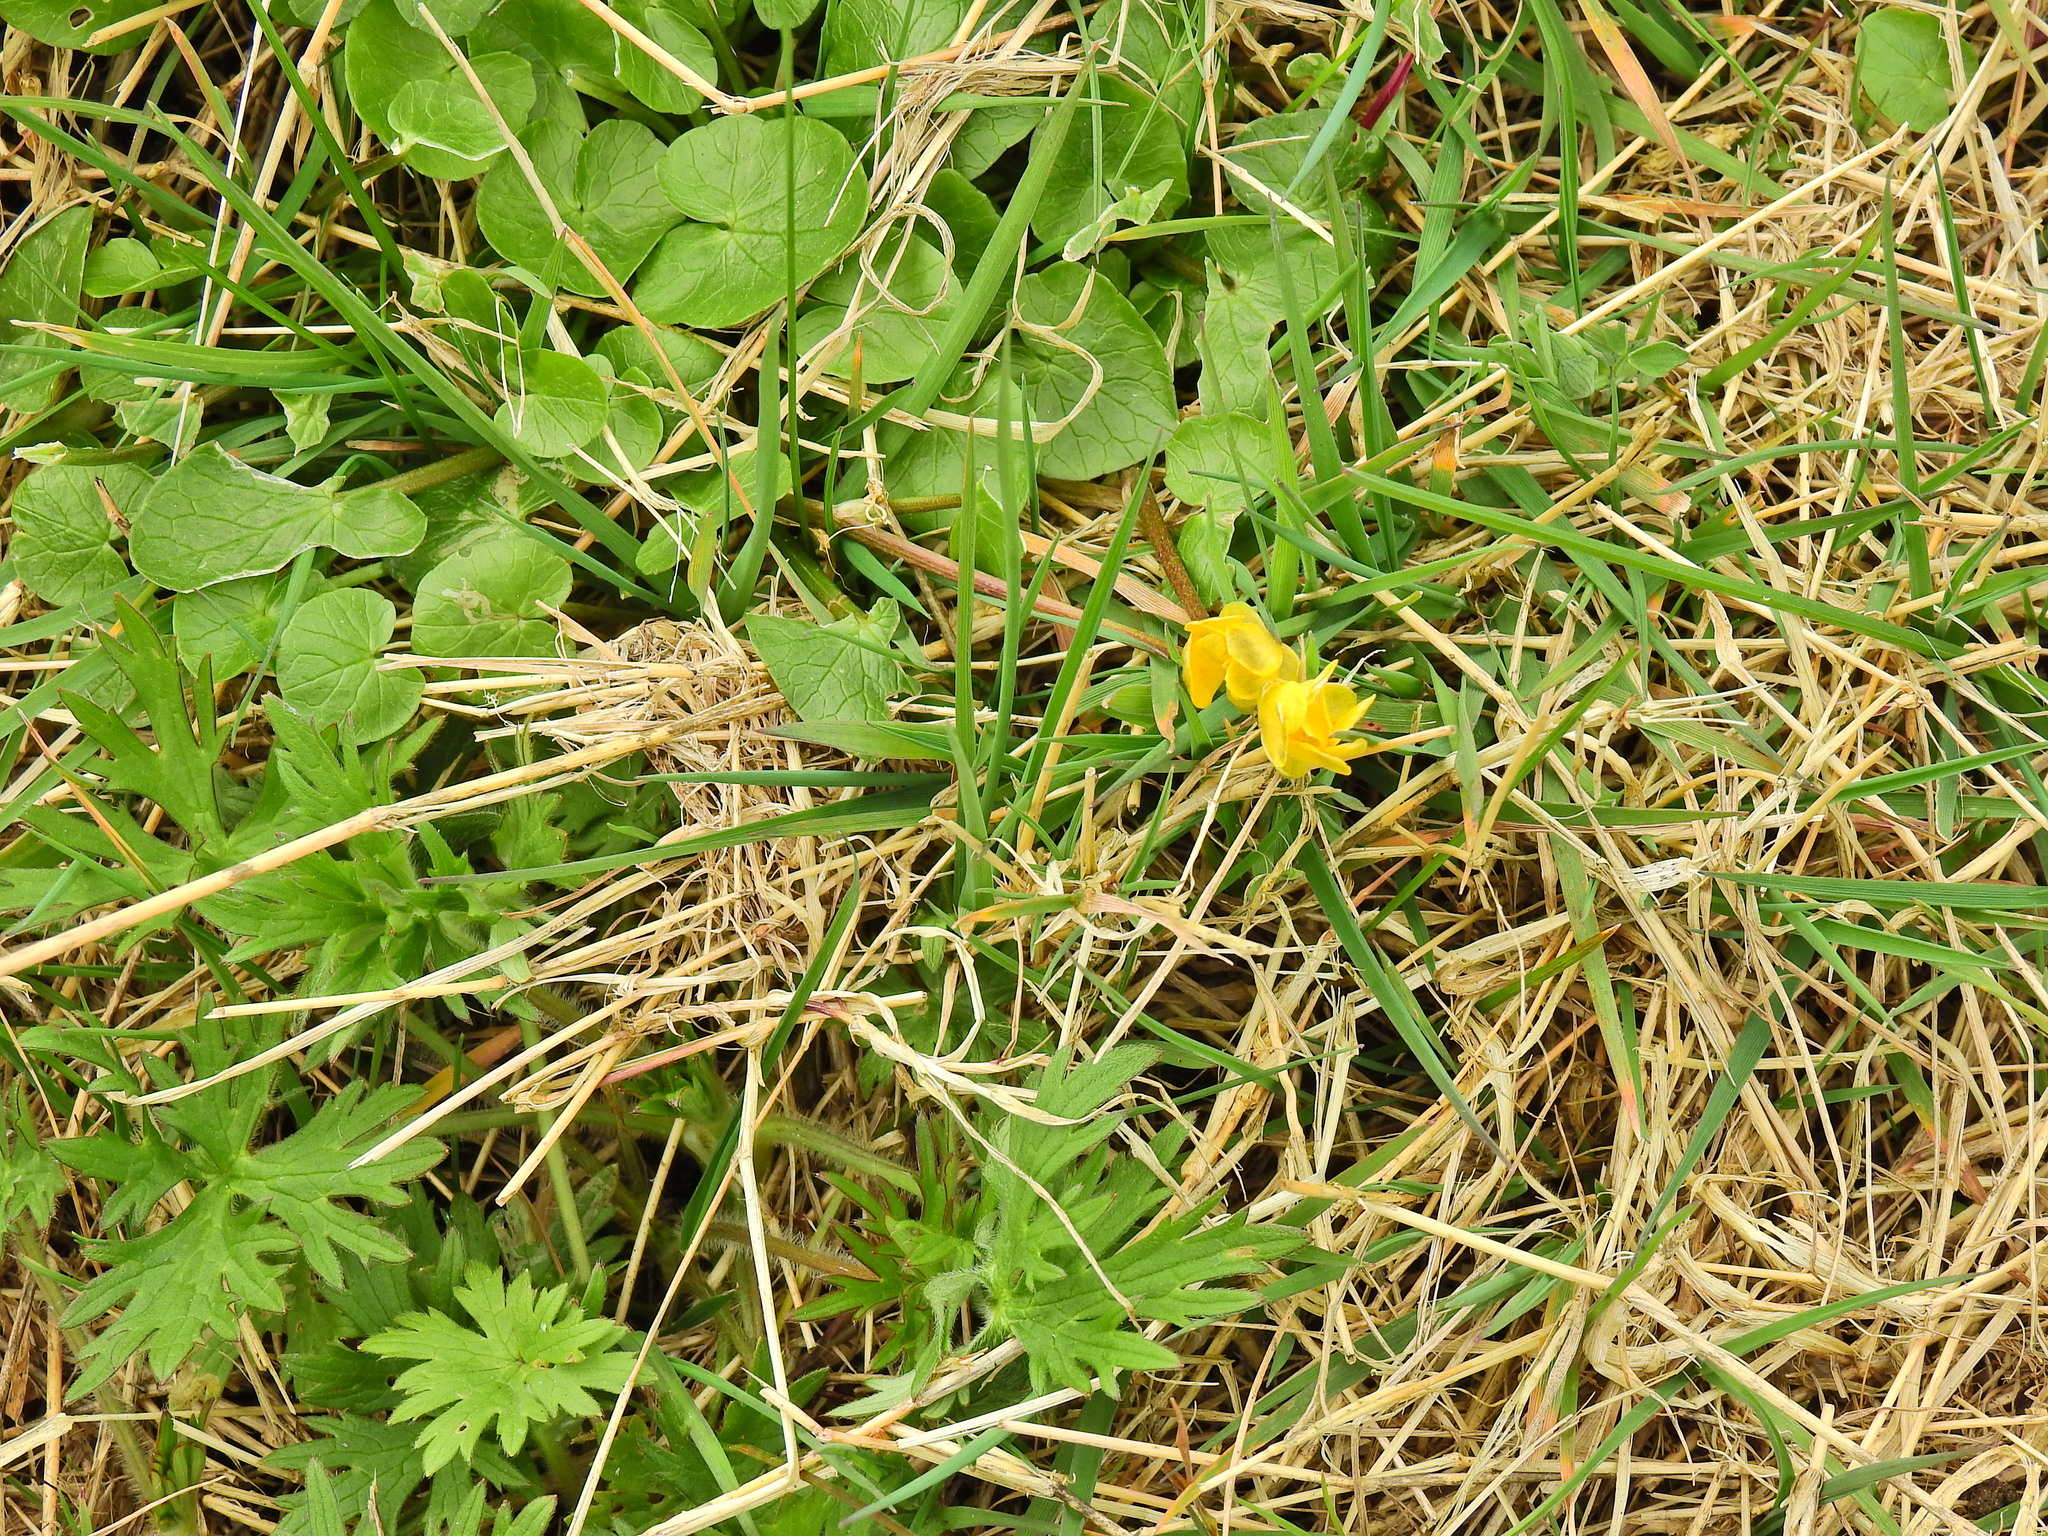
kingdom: Plantae
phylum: Tracheophyta
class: Magnoliopsida
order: Ranunculales
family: Ranunculaceae
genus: Ficaria
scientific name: Ficaria verna
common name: Lesser celandine
